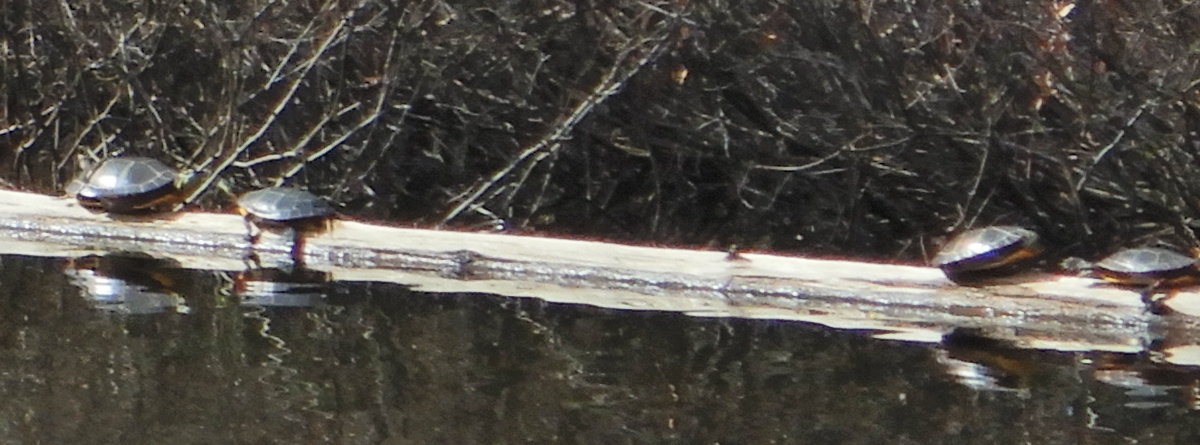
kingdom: Animalia
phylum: Chordata
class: Testudines
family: Emydidae
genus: Chrysemys
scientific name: Chrysemys picta
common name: Painted turtle
